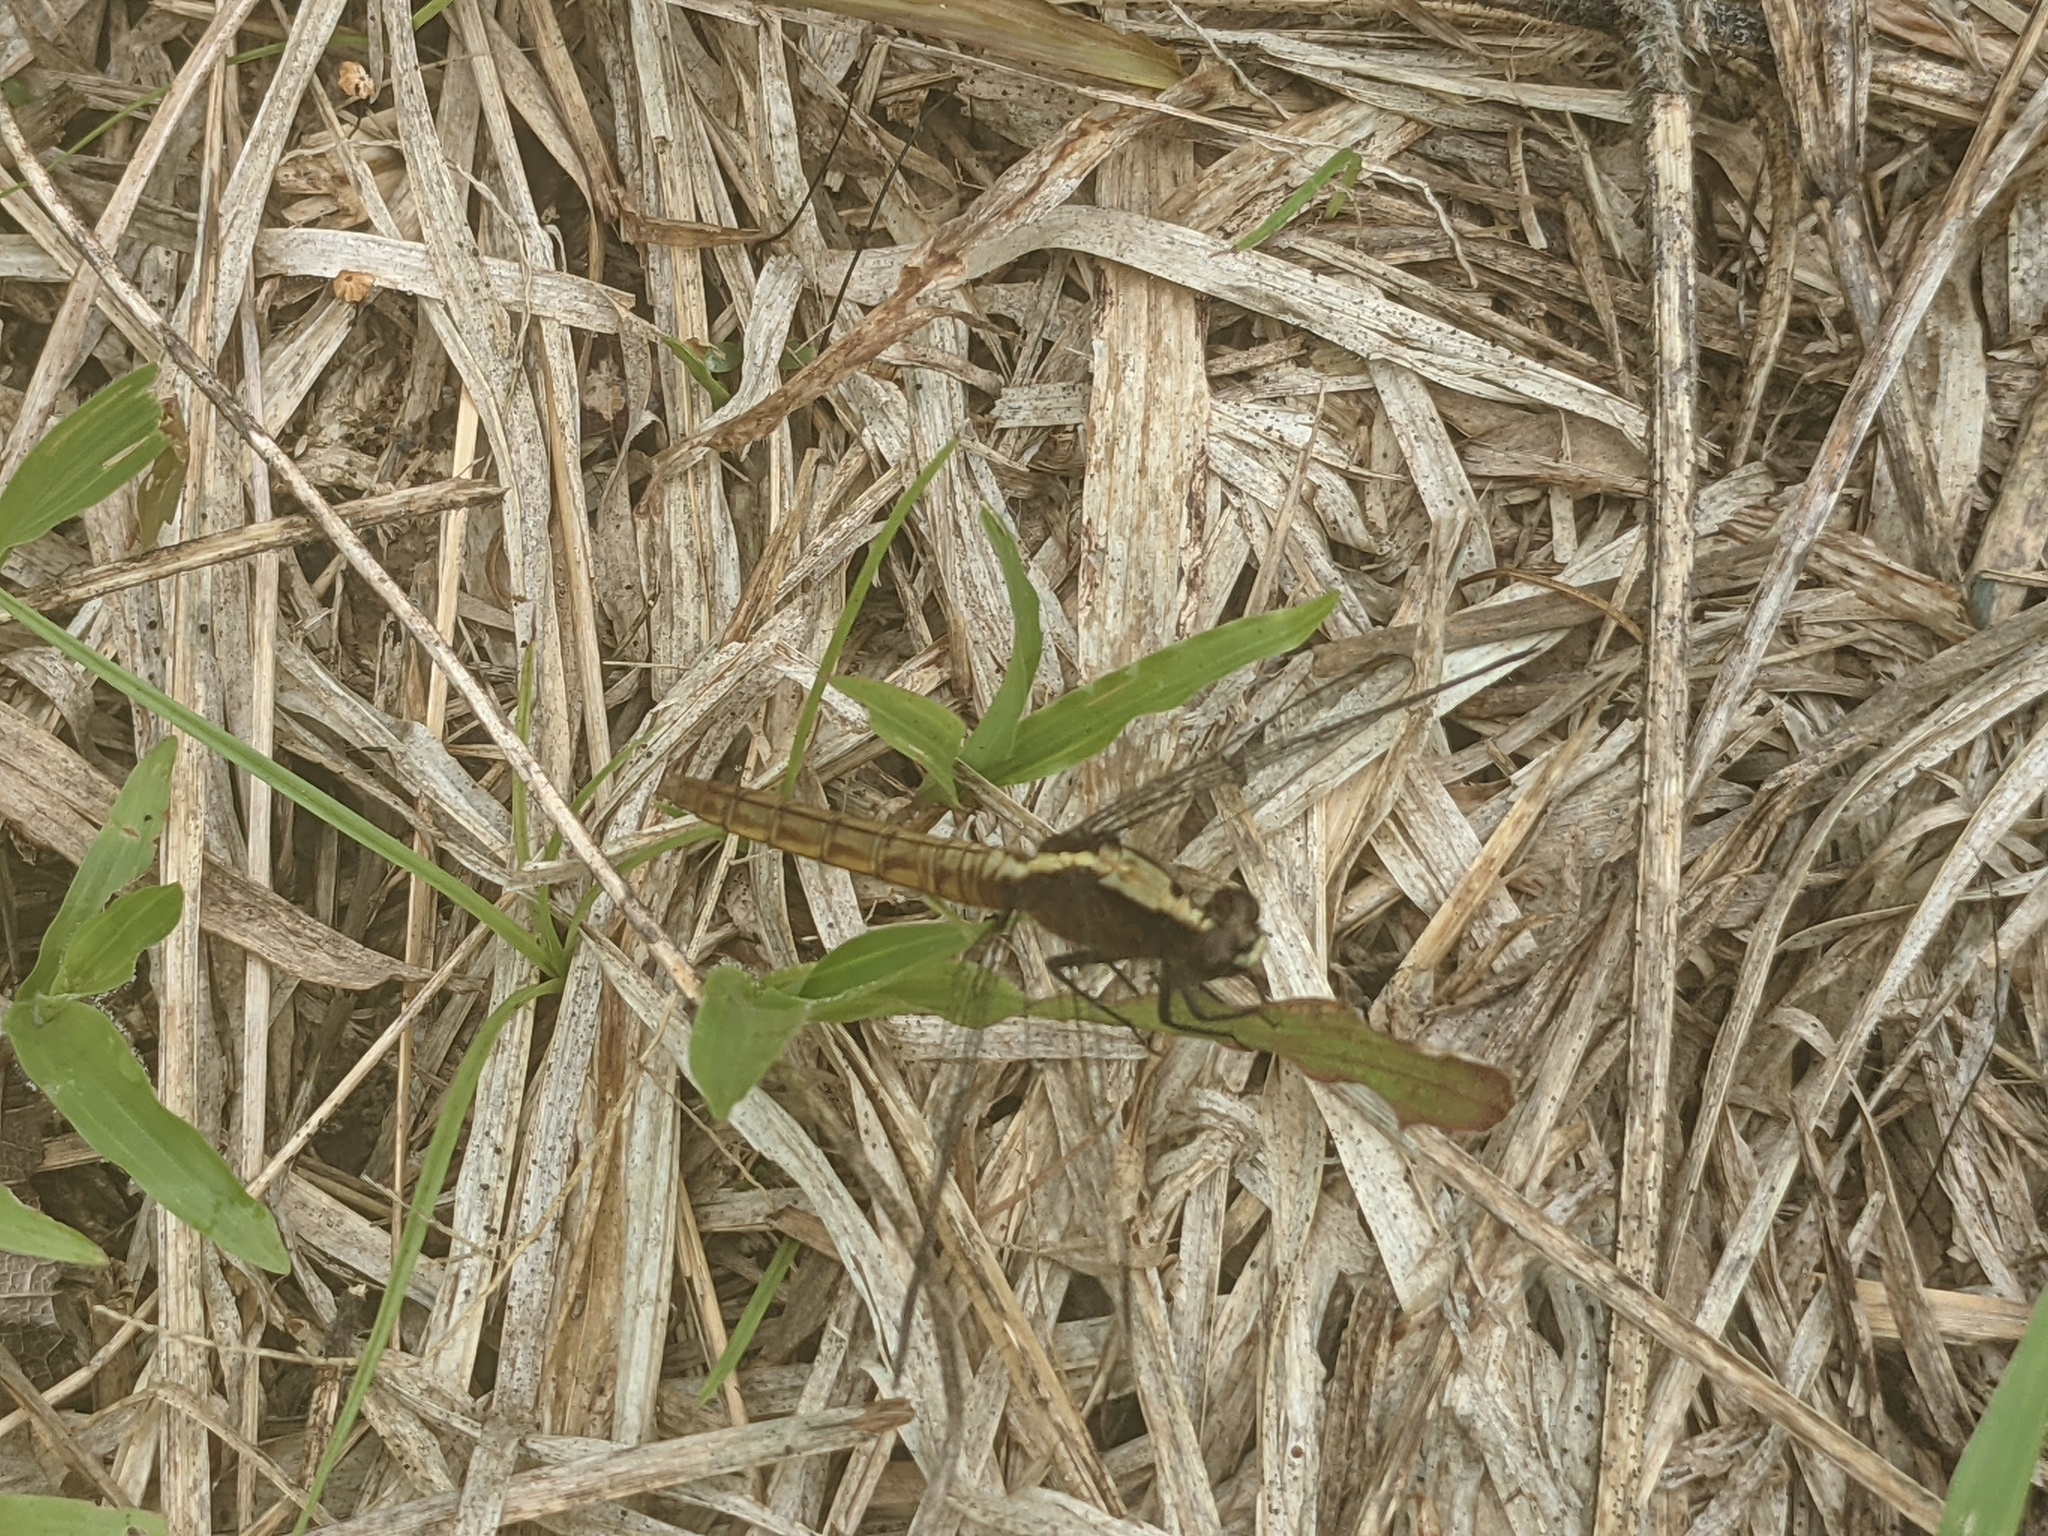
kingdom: Animalia
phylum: Arthropoda
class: Insecta
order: Odonata
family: Libellulidae
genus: Erythemis
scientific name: Erythemis peruviana
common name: Flame-tailed pondhawk
